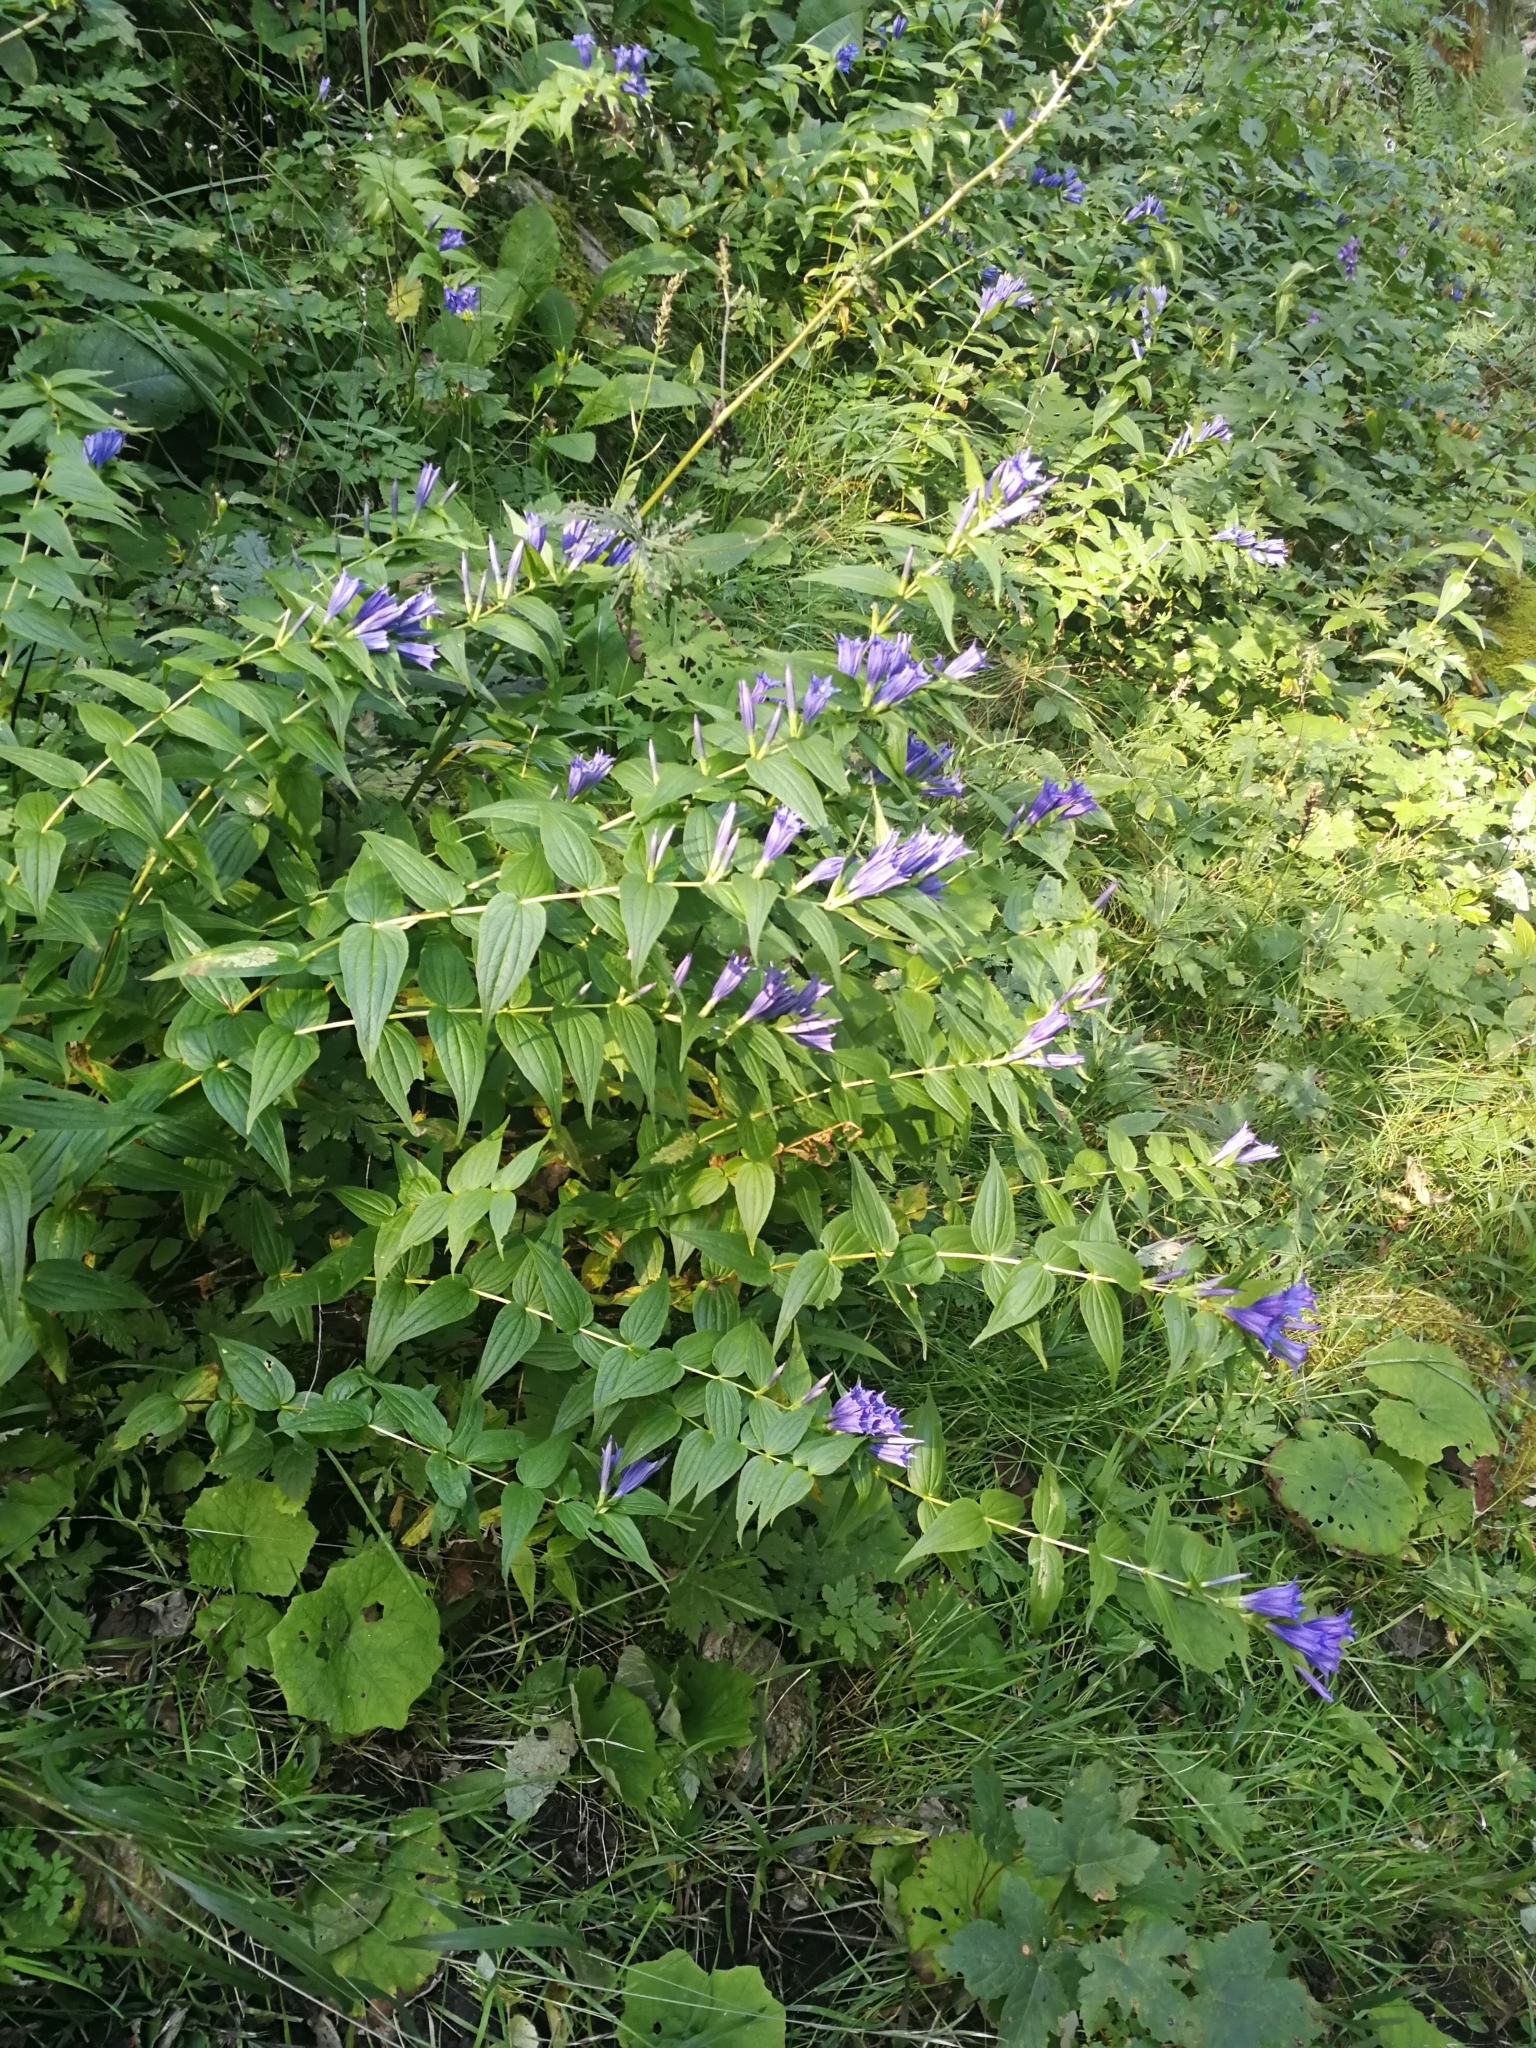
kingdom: Plantae
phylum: Tracheophyta
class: Magnoliopsida
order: Gentianales
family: Gentianaceae
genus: Gentiana
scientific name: Gentiana asclepiadea
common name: Willow gentian
